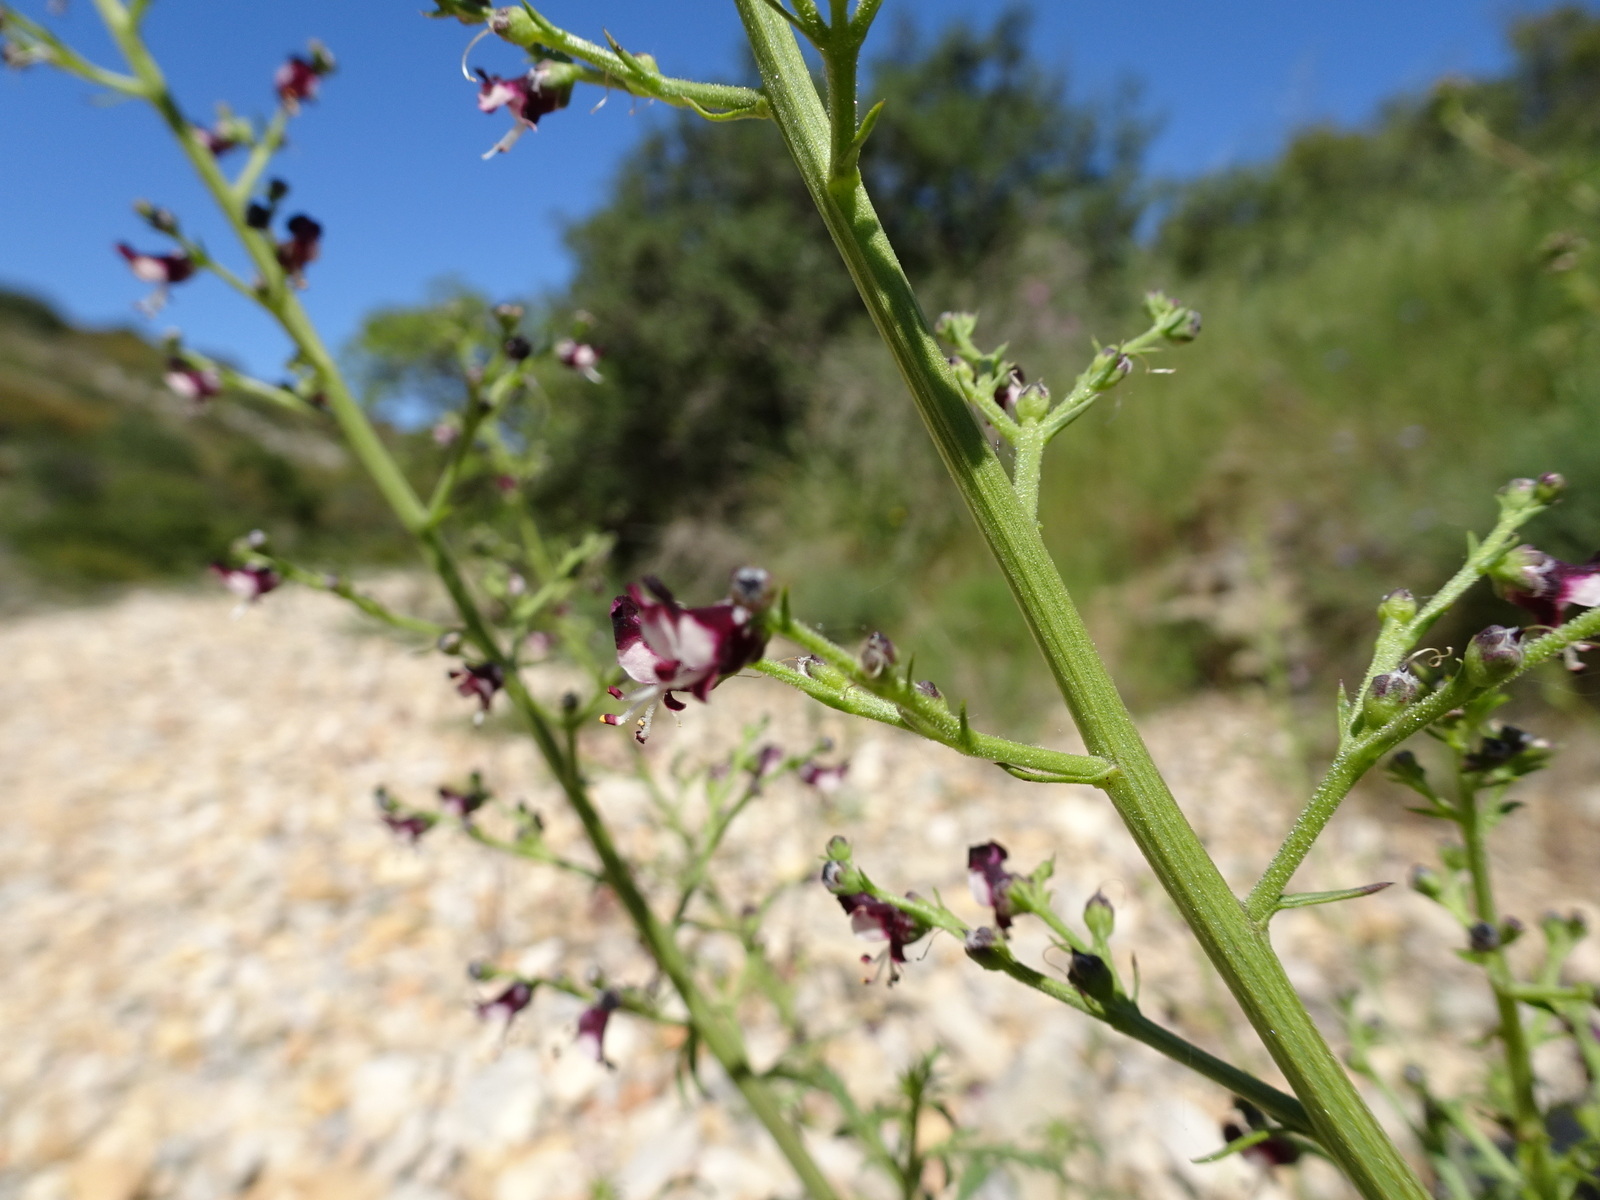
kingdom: Plantae
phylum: Tracheophyta
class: Magnoliopsida
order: Lamiales
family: Scrophulariaceae
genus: Scrophularia
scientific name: Scrophularia canina
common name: French figwort
